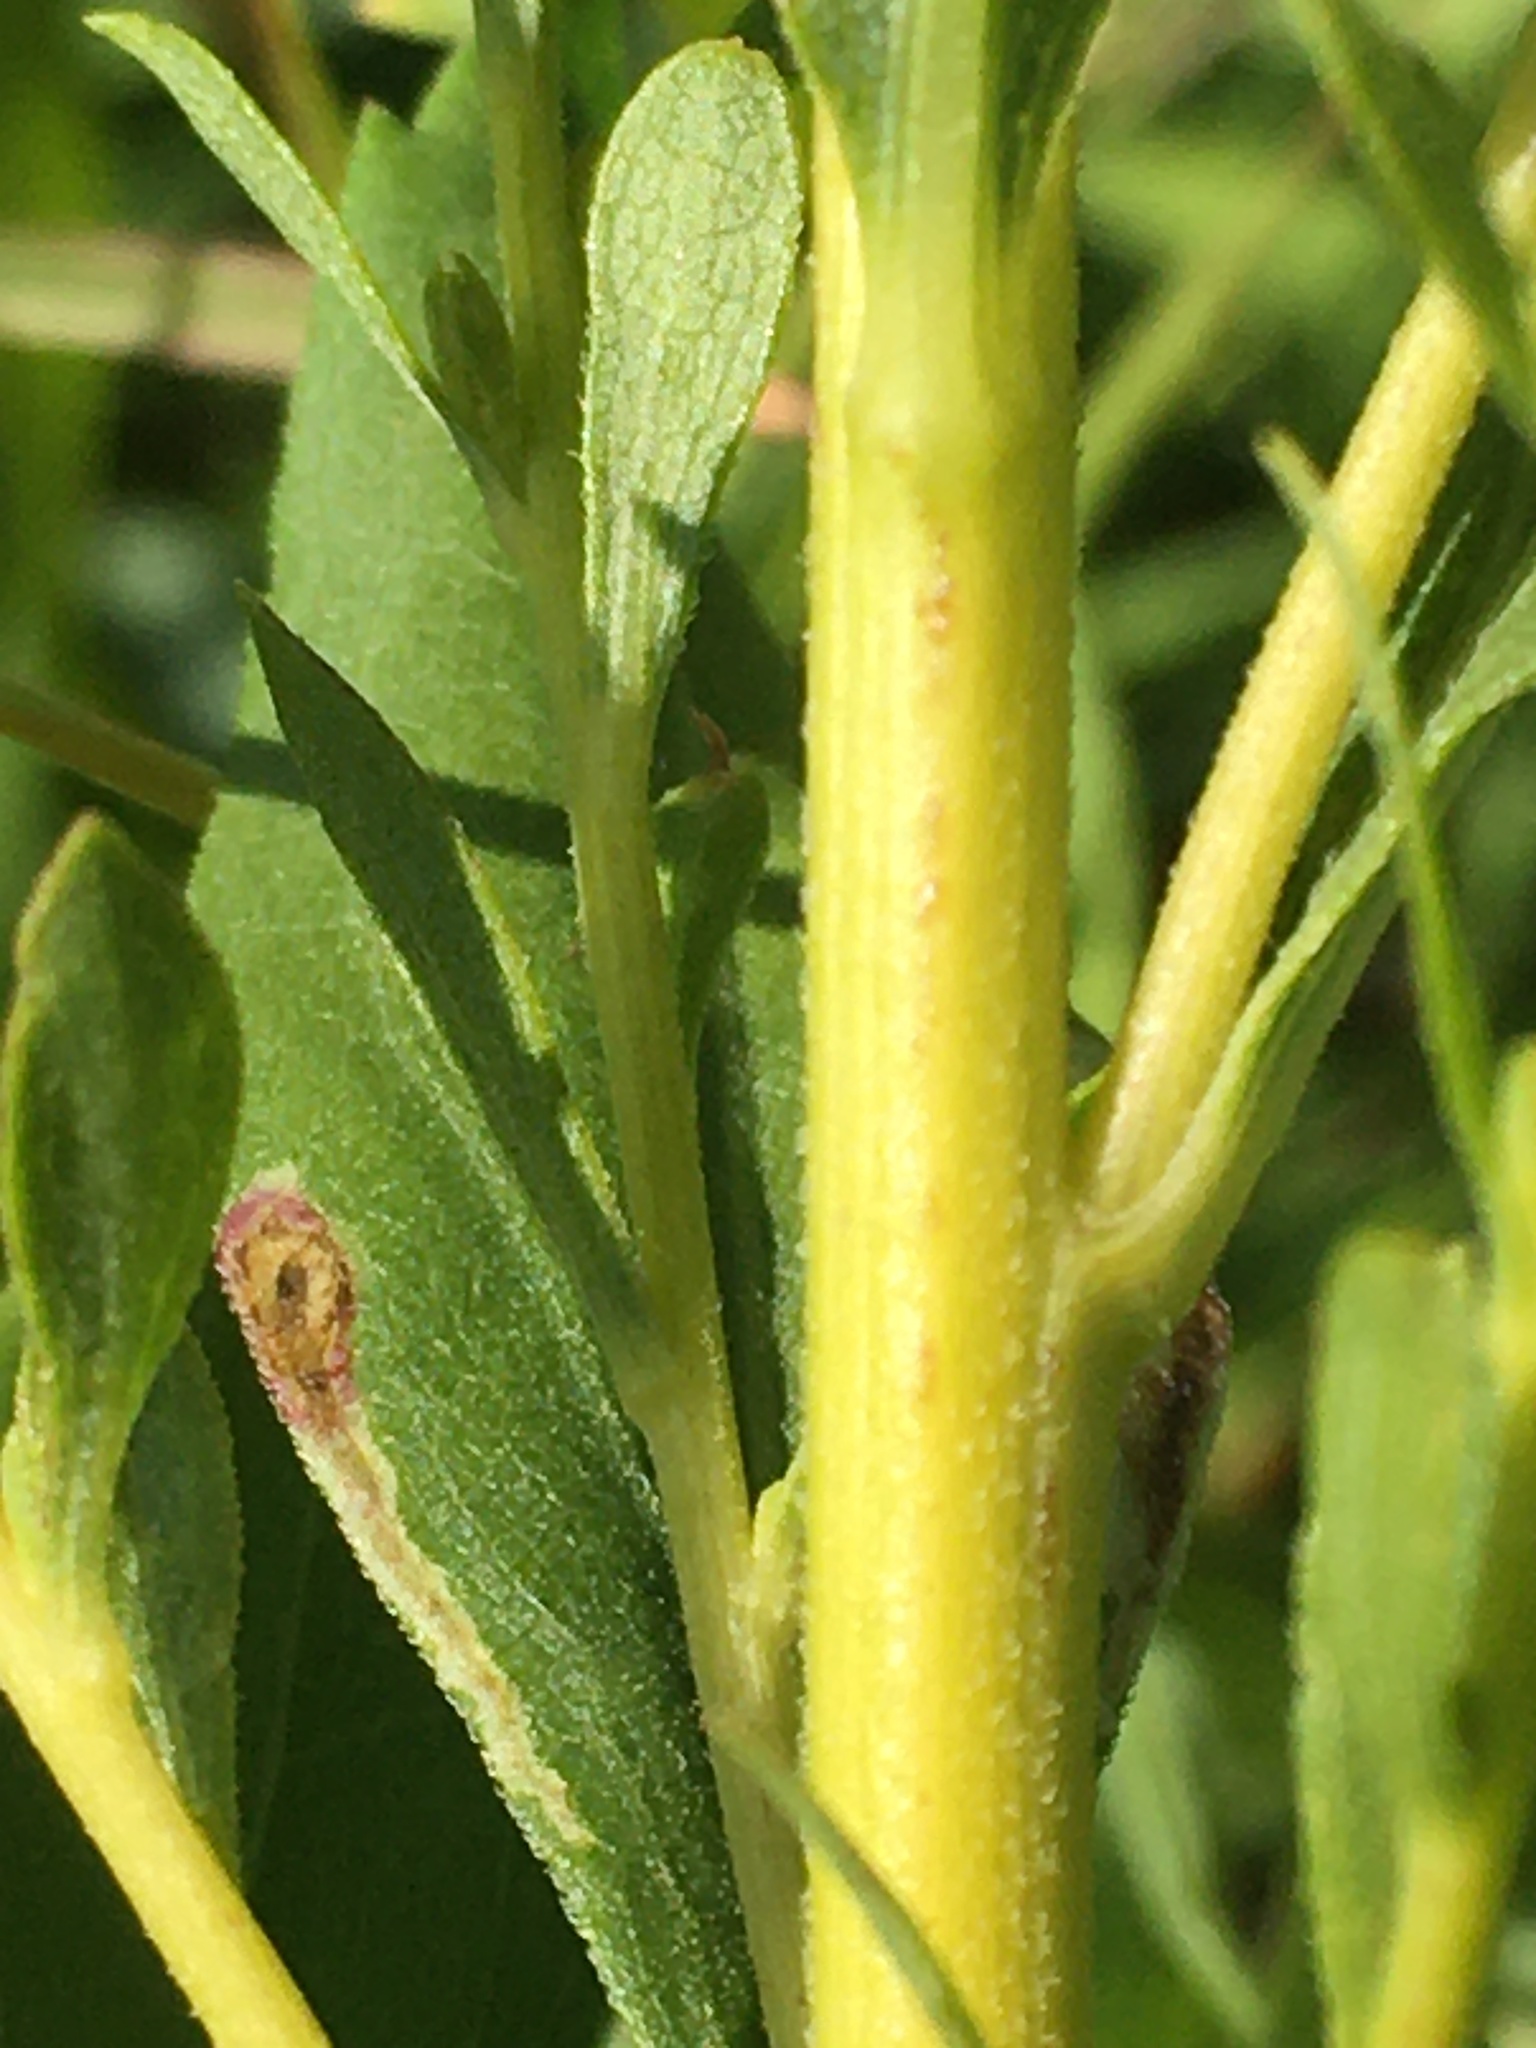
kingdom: Plantae
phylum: Tracheophyta
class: Magnoliopsida
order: Asterales
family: Asteraceae
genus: Solidago
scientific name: Solidago canadensis
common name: Canada goldenrod
